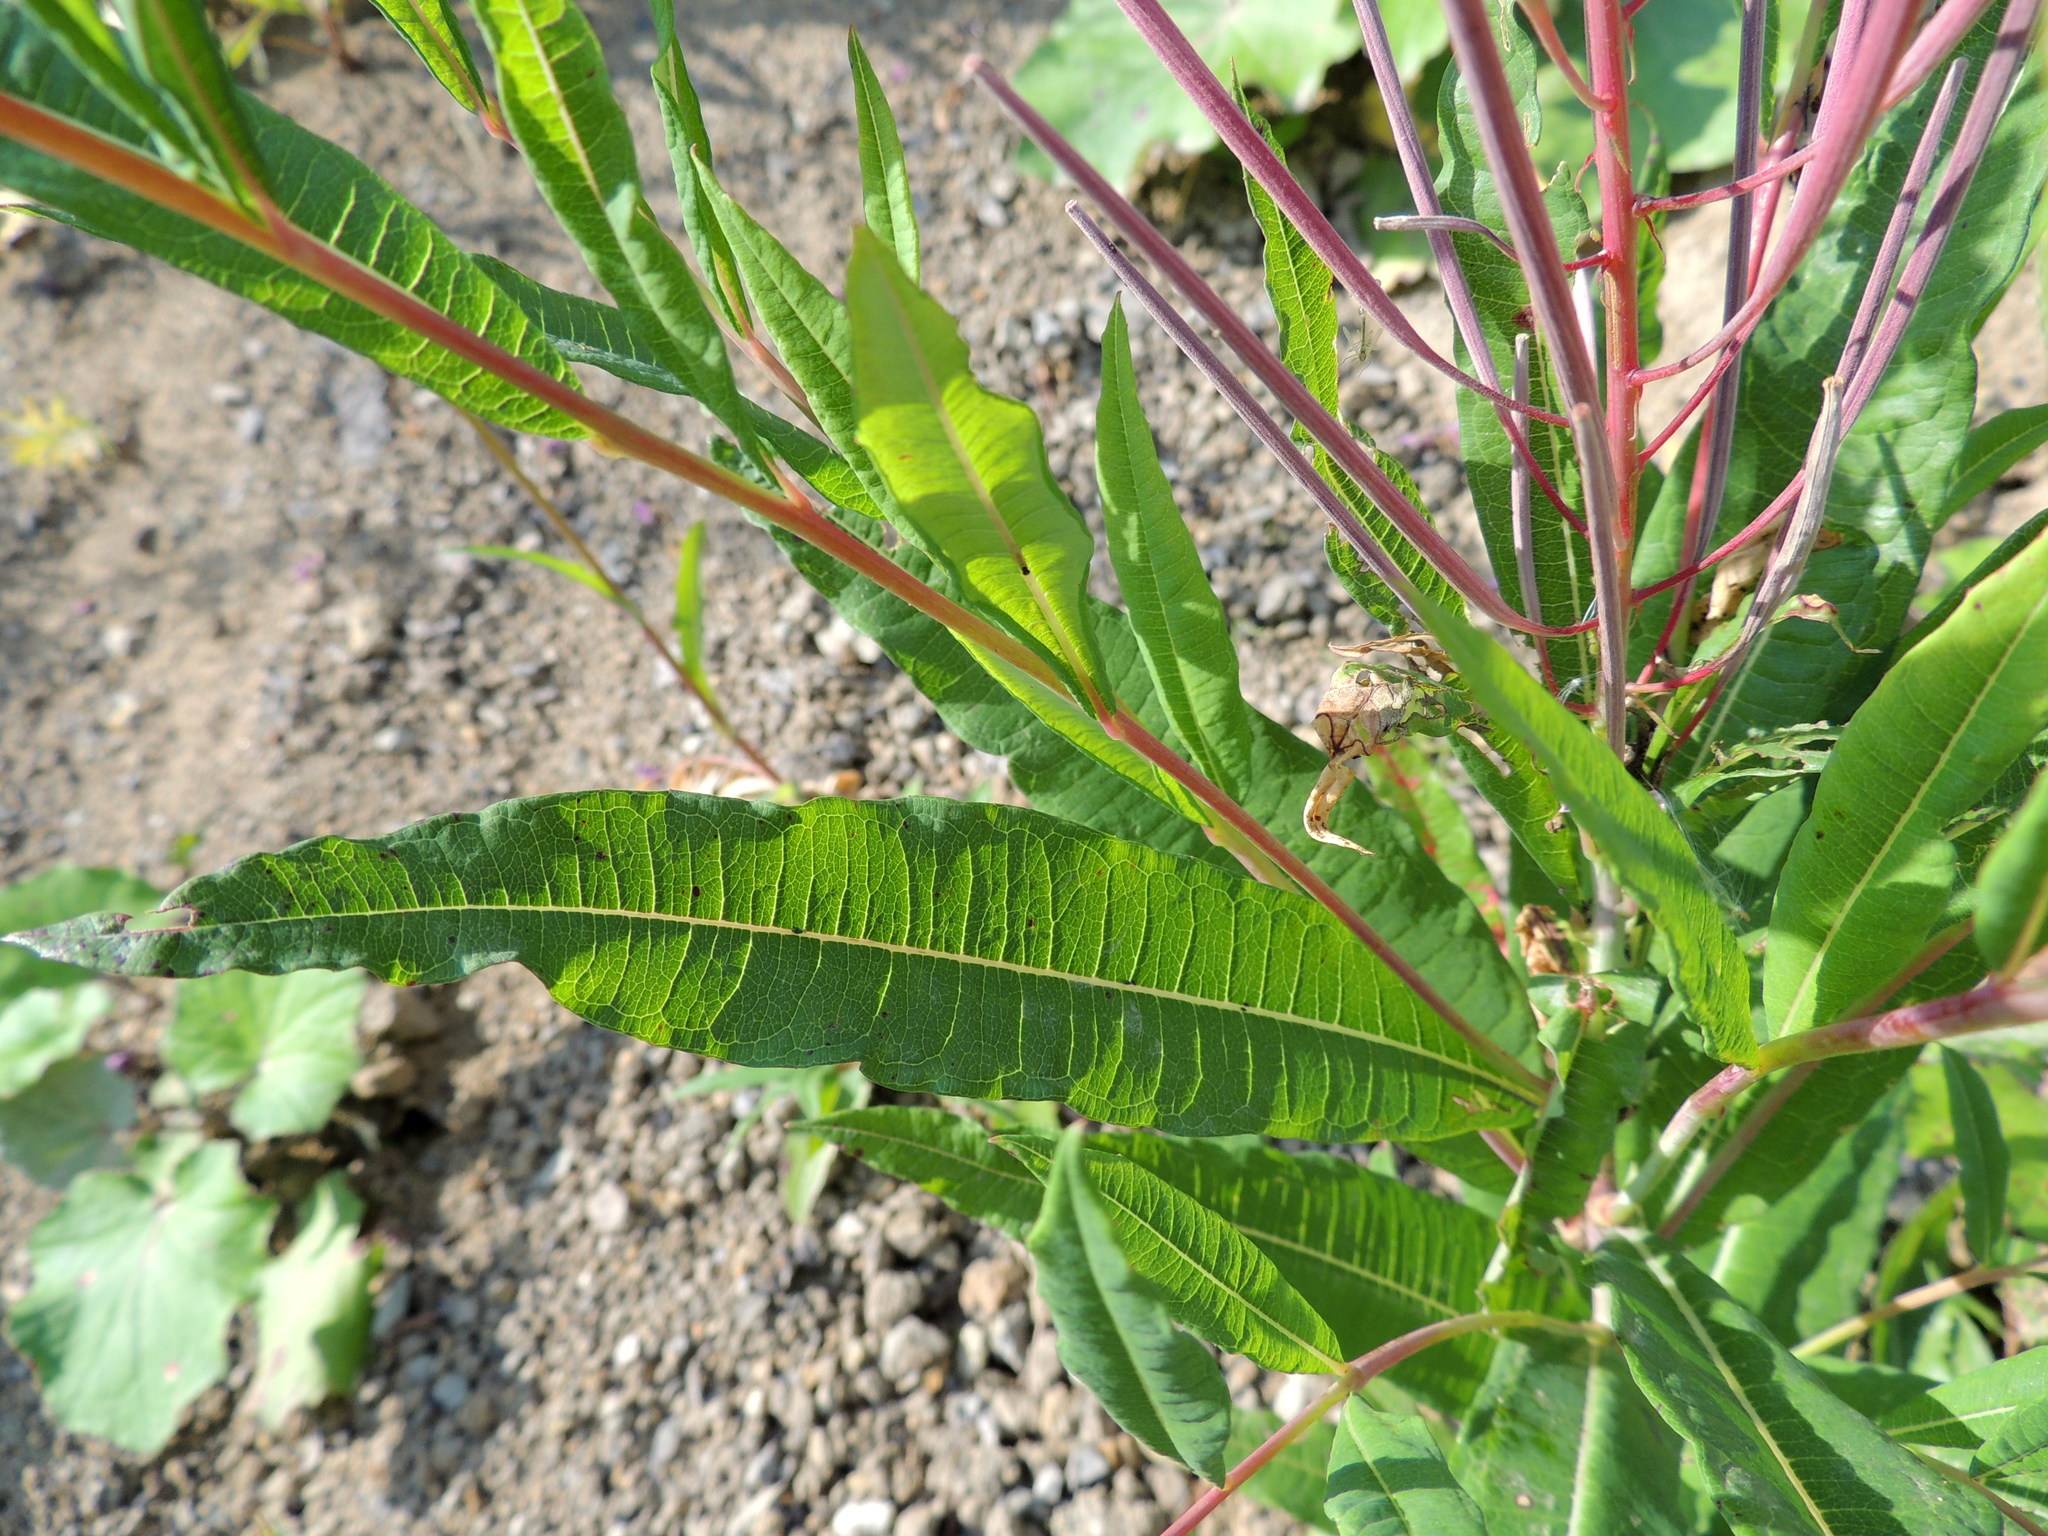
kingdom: Plantae
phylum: Tracheophyta
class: Magnoliopsida
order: Myrtales
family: Onagraceae
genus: Chamaenerion
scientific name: Chamaenerion angustifolium
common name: Fireweed
